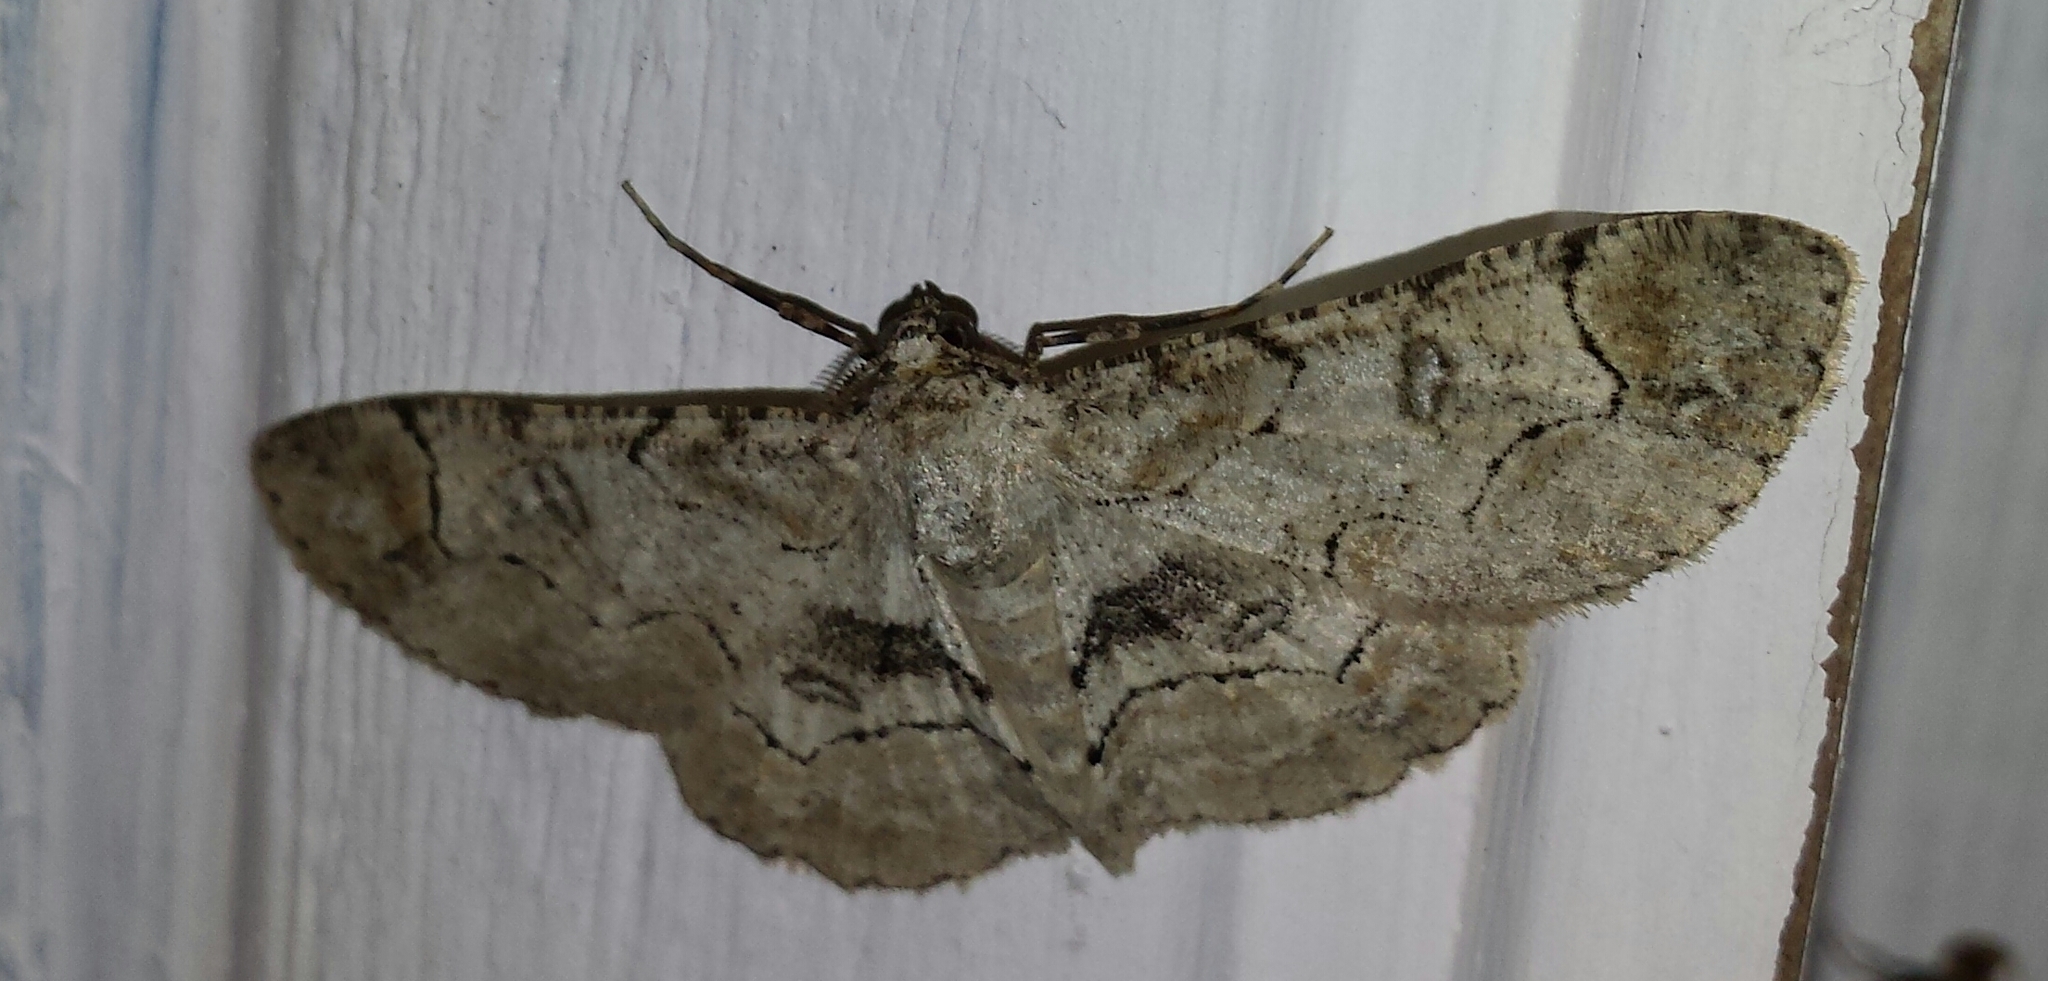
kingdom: Animalia
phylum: Arthropoda
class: Insecta
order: Lepidoptera
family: Geometridae
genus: Iridopsis
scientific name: Iridopsis larvaria
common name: Bent-line gray
